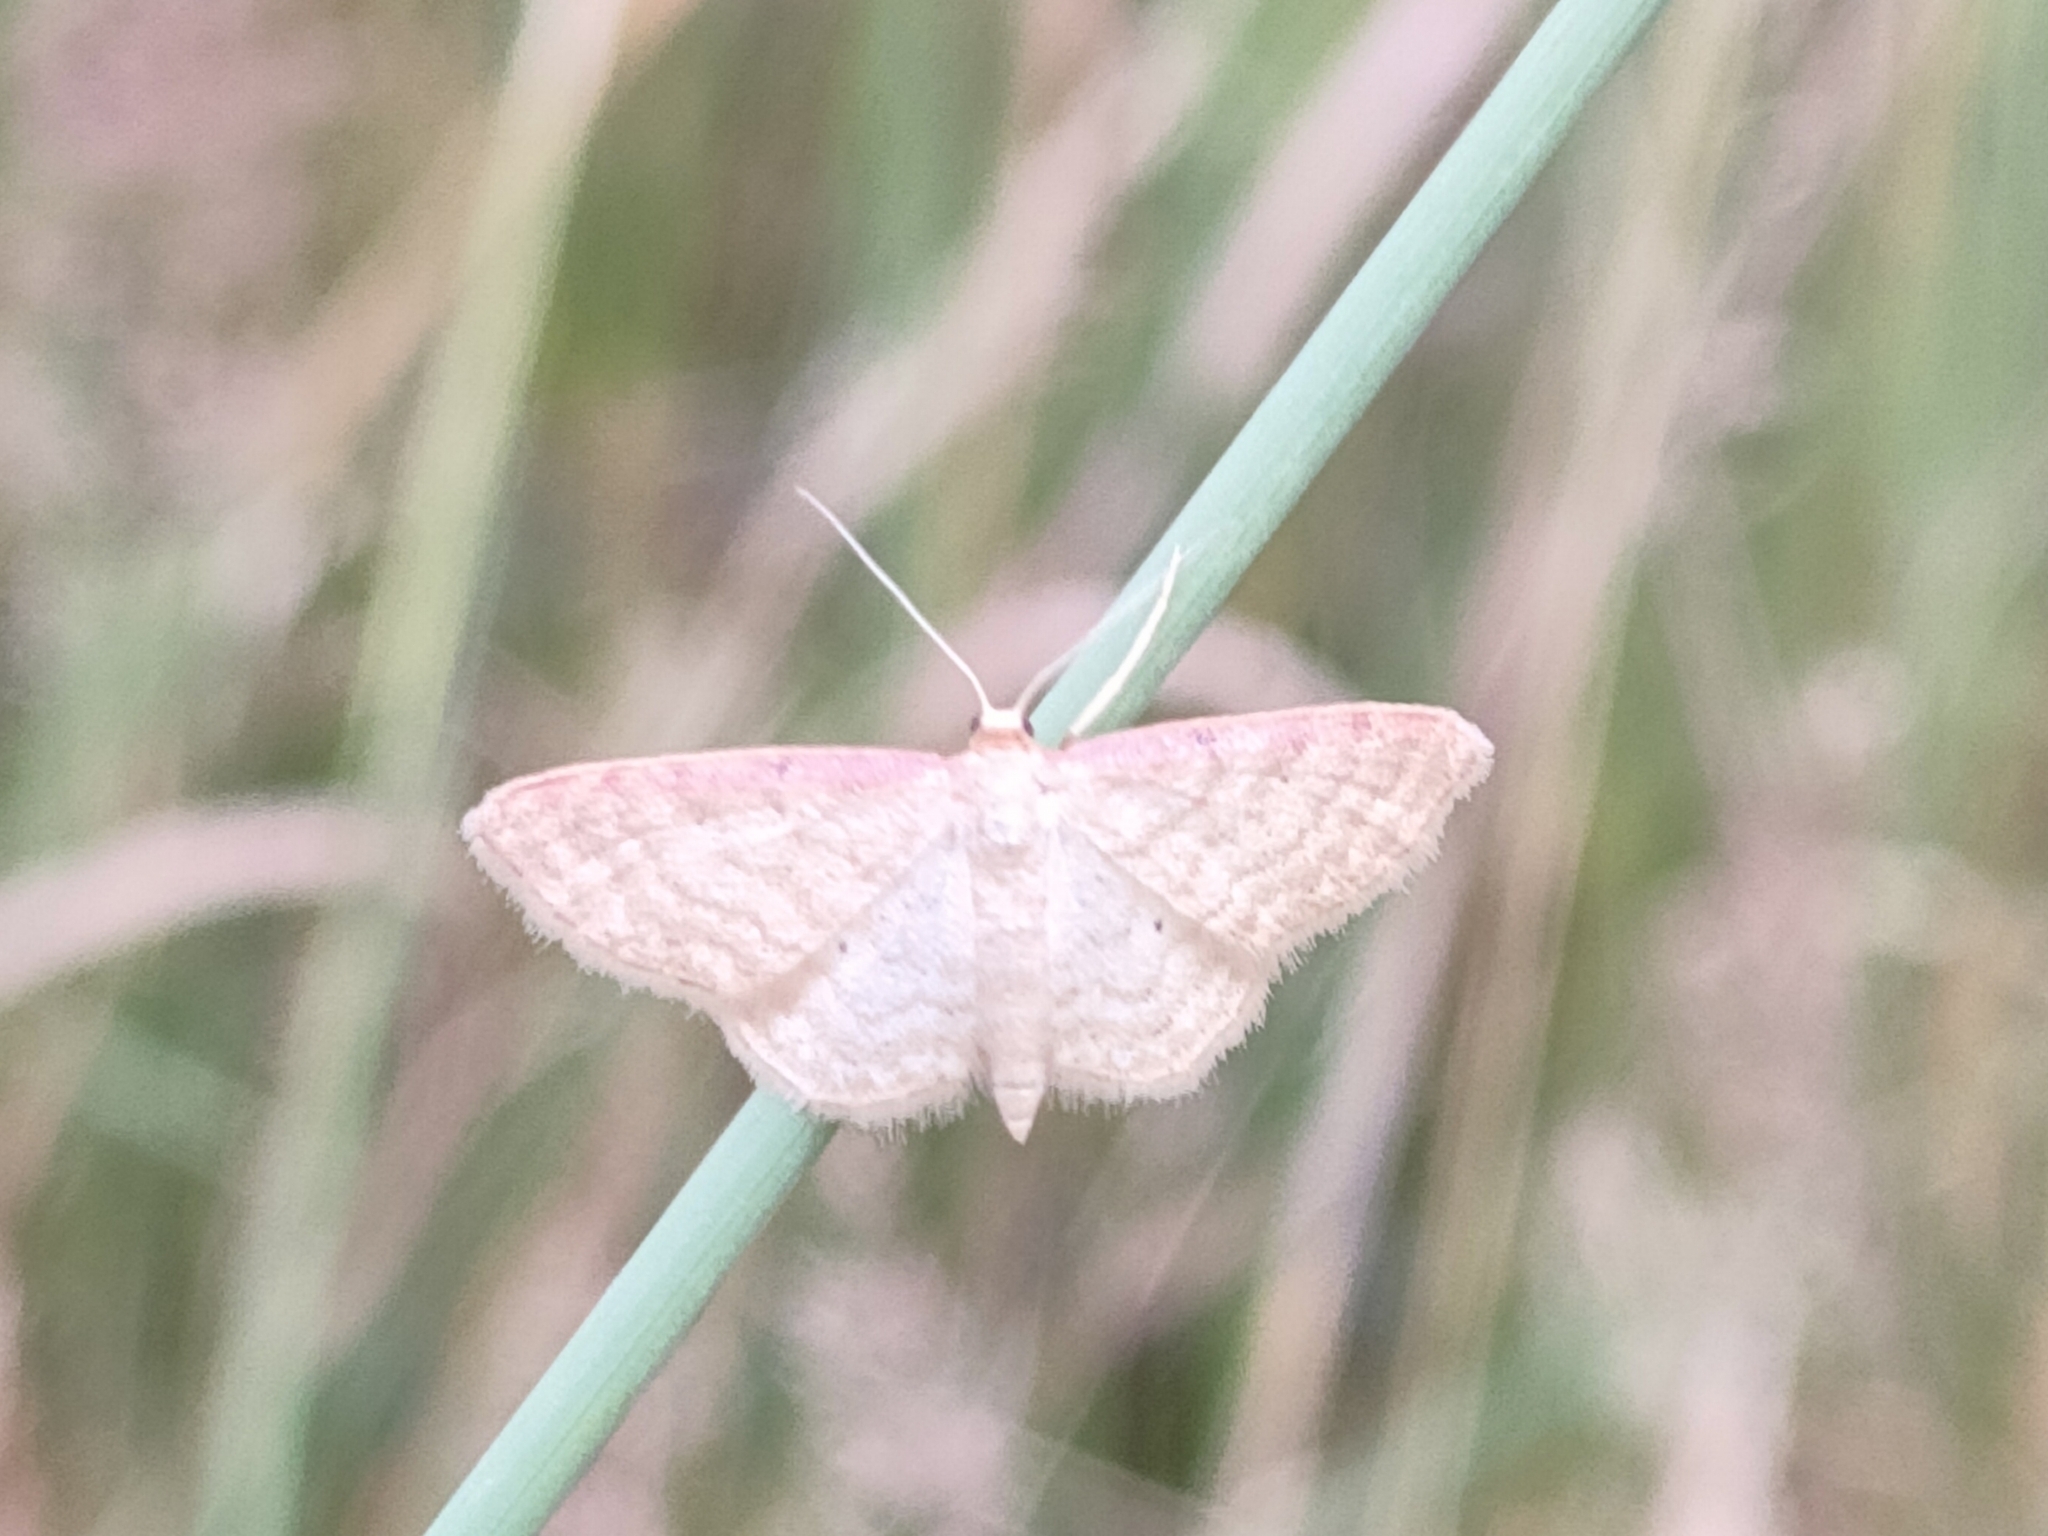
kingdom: Animalia
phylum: Arthropoda
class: Insecta
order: Lepidoptera
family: Geometridae
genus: Idaea
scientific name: Idaea humiliata
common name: Isle of wight wave
